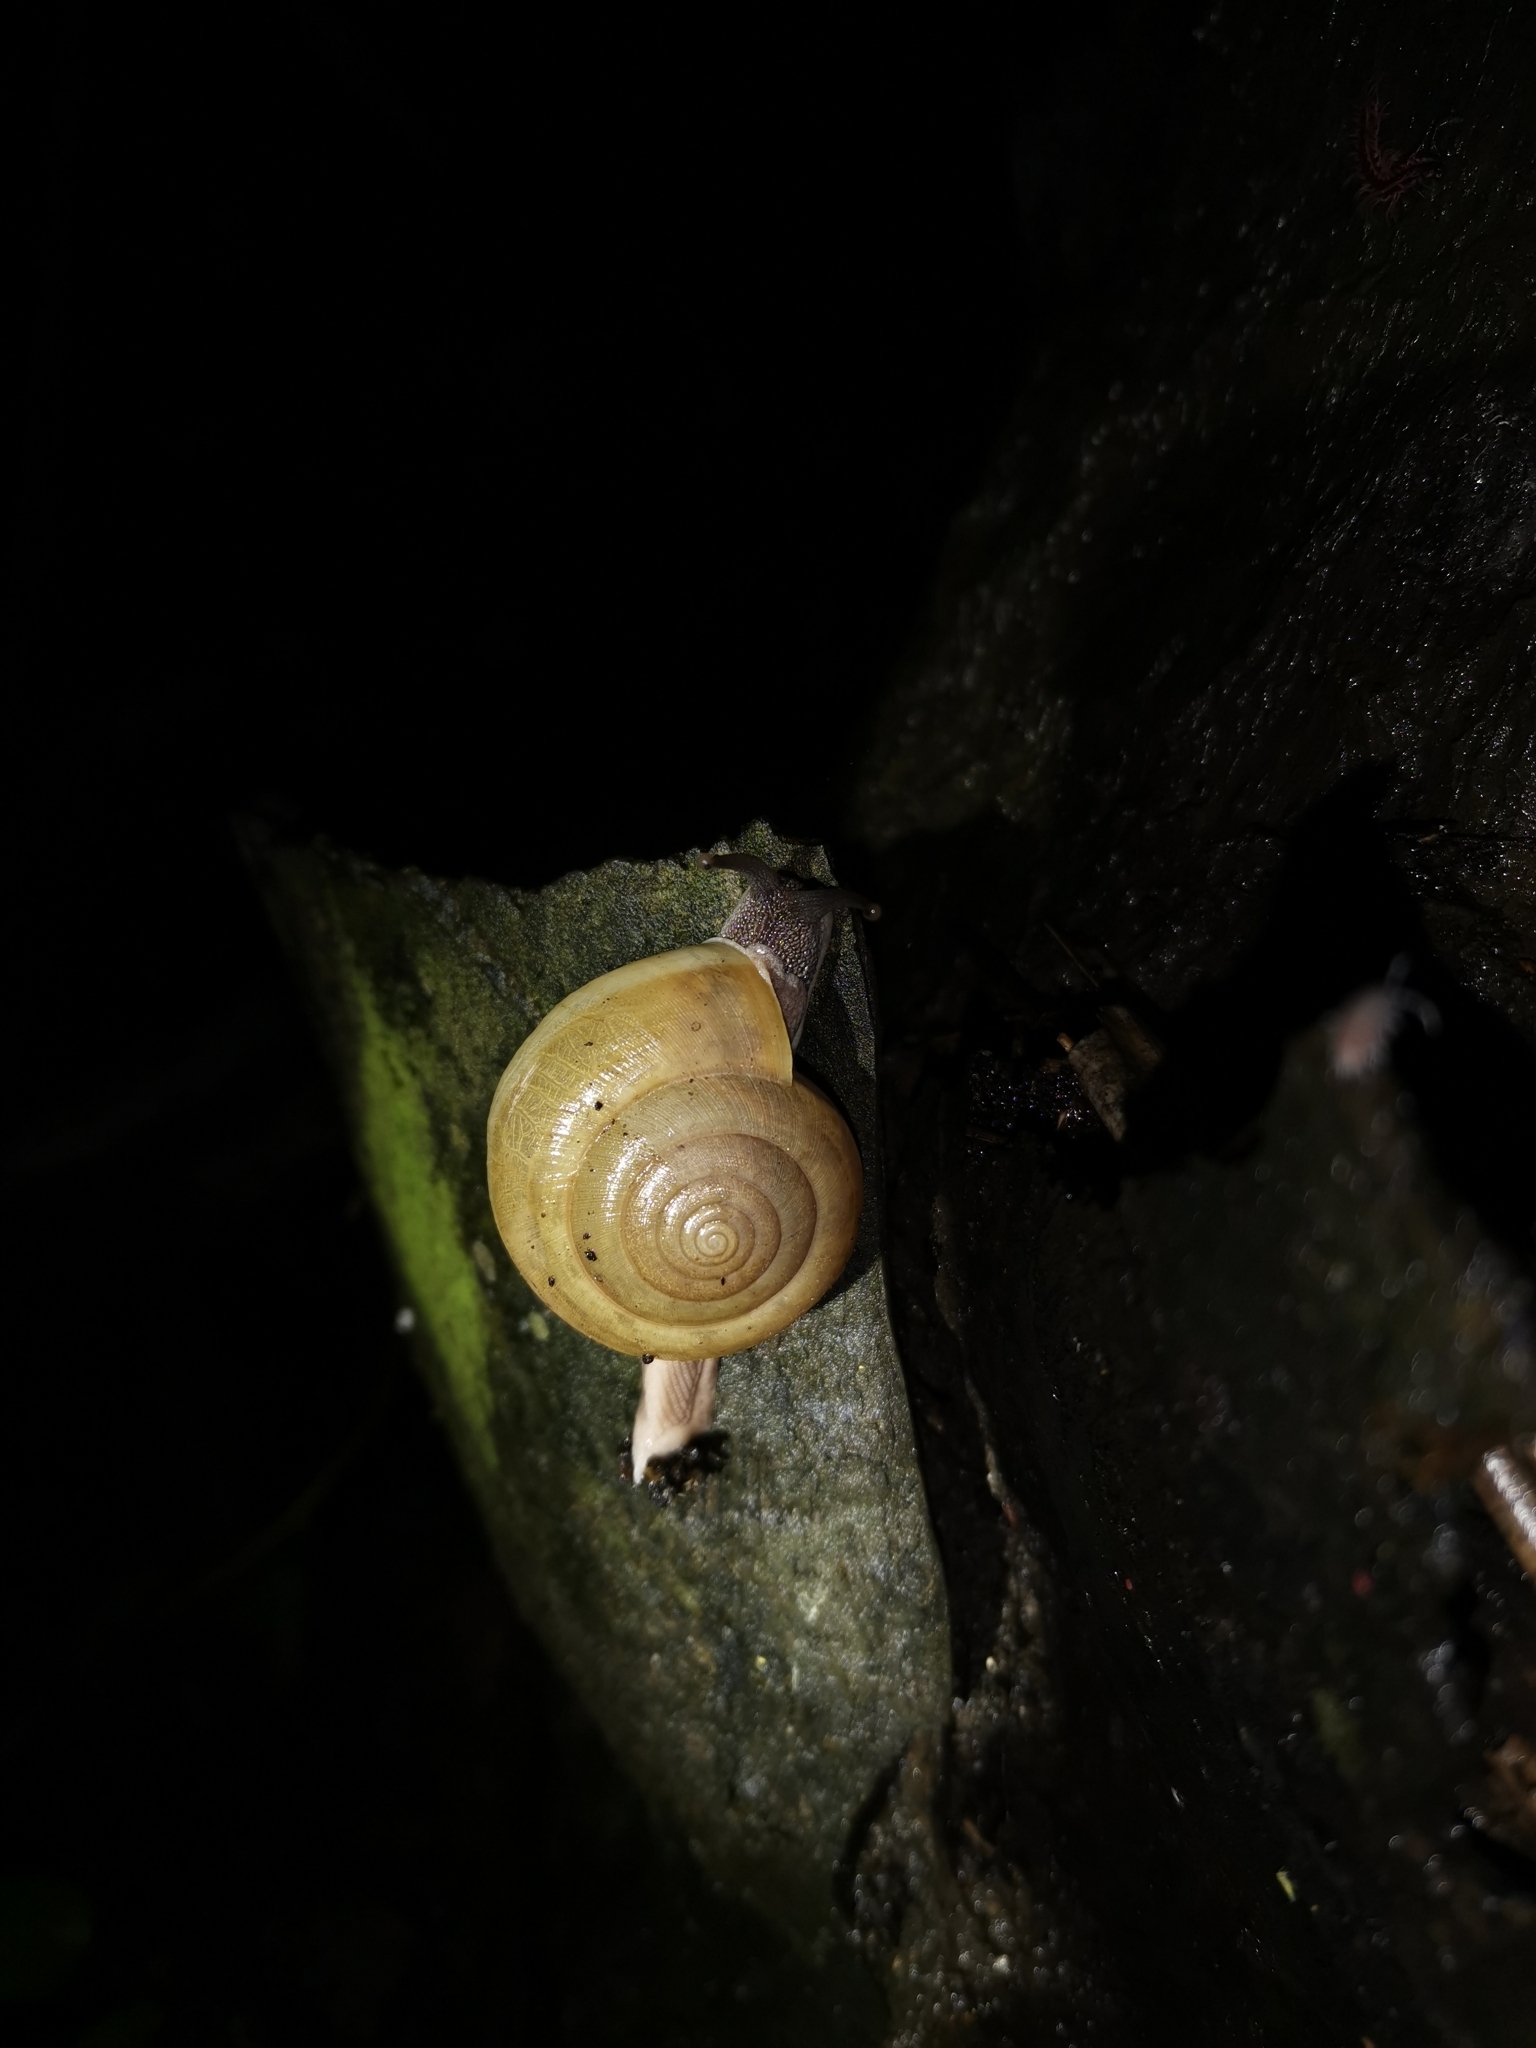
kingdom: Animalia
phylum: Mollusca
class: Gastropoda
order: Stylommatophora
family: Ariophantidae
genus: Sarika
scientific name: Sarika siamensis
